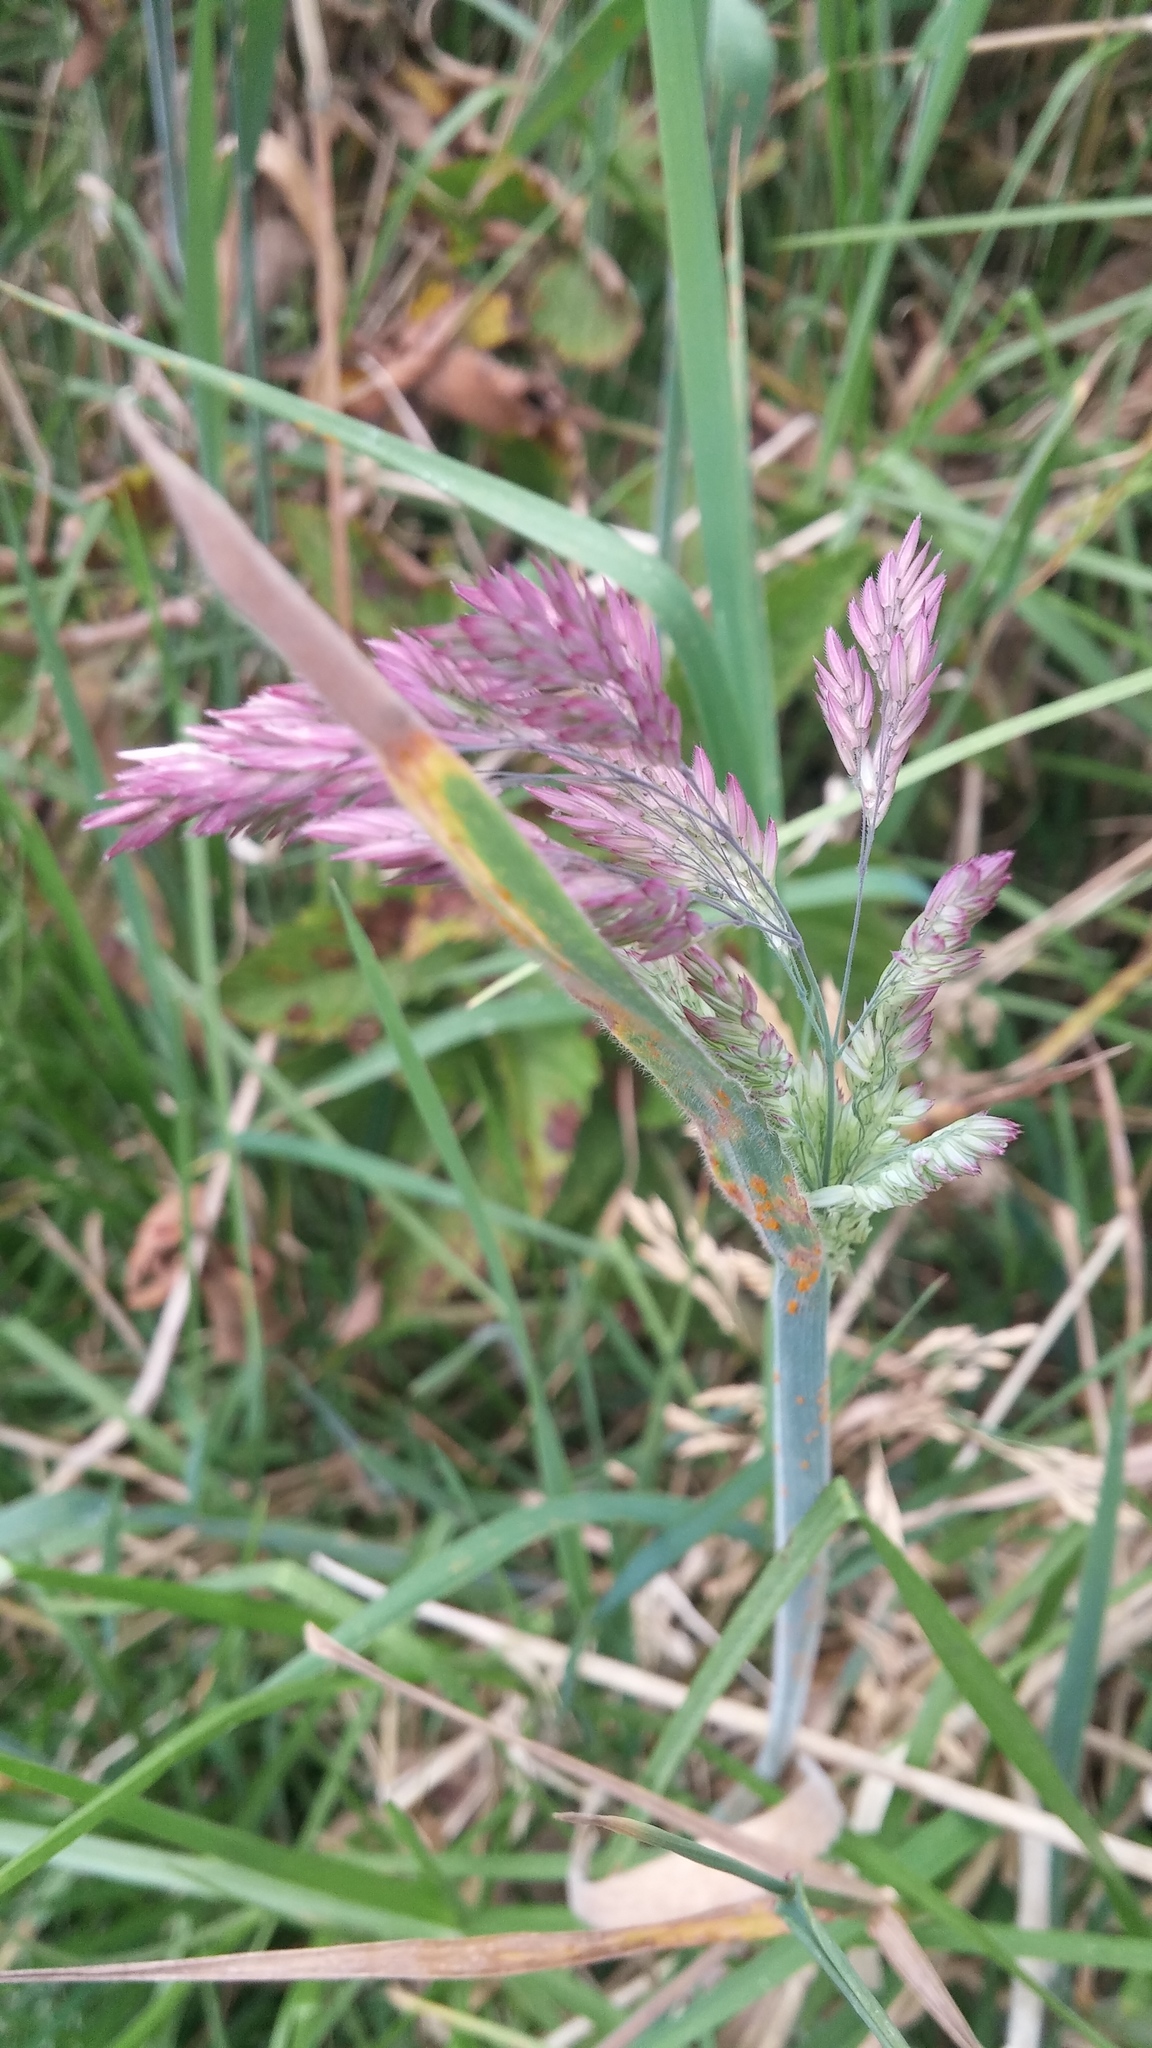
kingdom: Plantae
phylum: Tracheophyta
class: Liliopsida
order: Poales
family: Poaceae
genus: Holcus
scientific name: Holcus lanatus
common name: Yorkshire-fog
